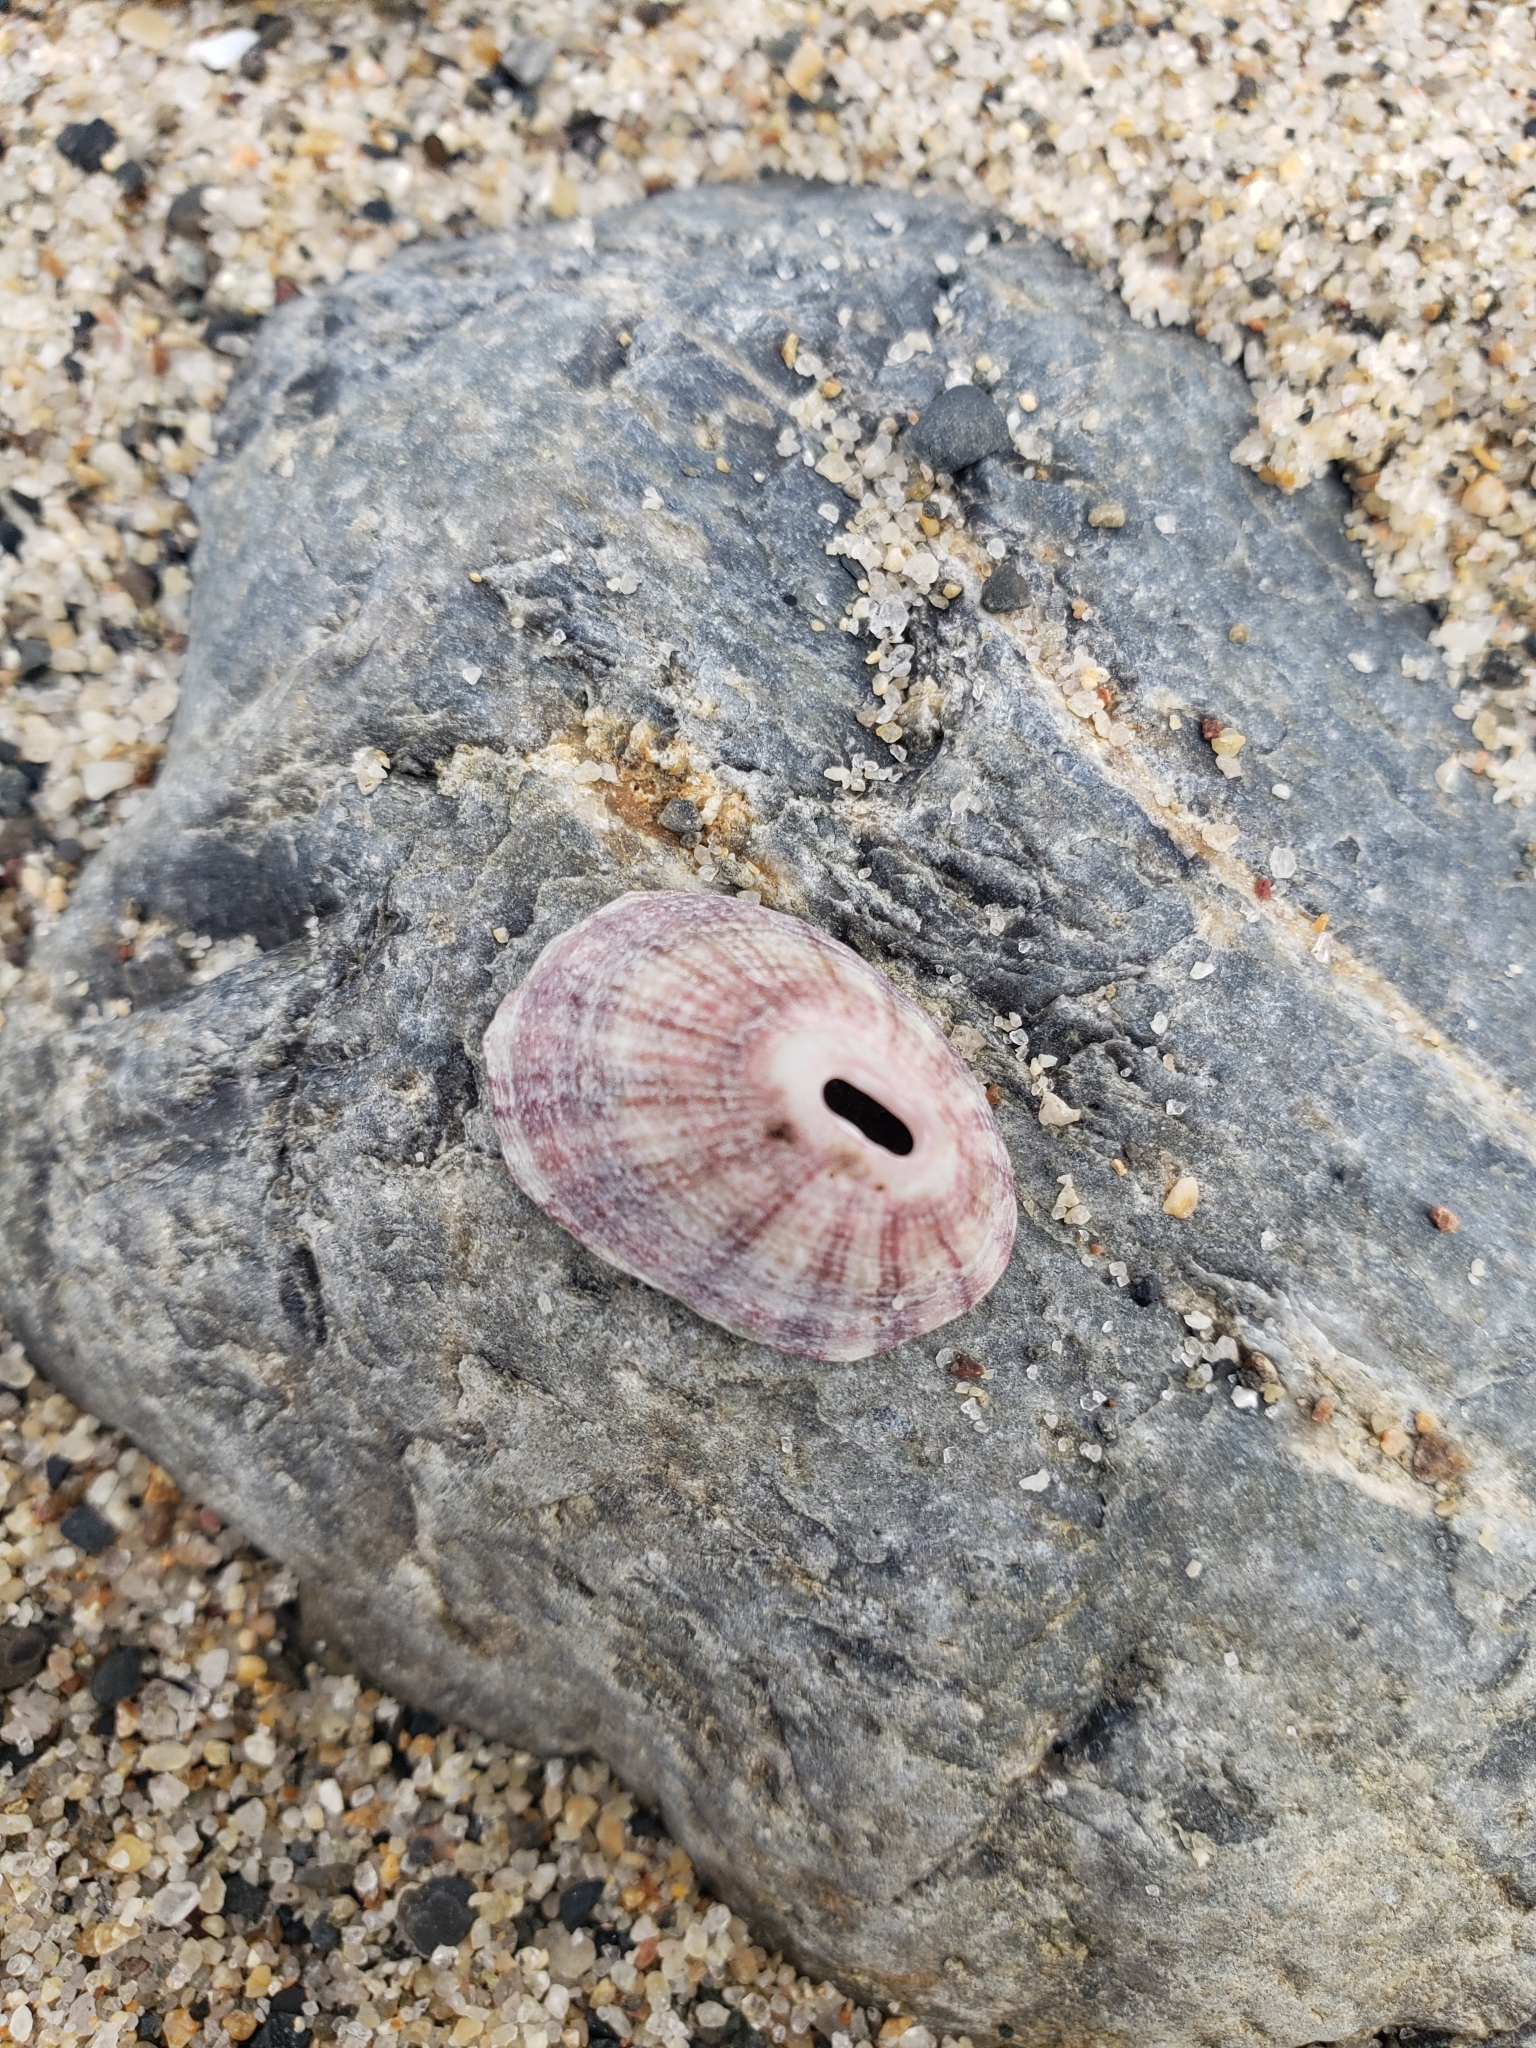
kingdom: Animalia
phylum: Mollusca
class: Gastropoda
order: Lepetellida
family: Fissurellidae
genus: Fissurella
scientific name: Fissurella volcano
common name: Volcano keyhole limpet
